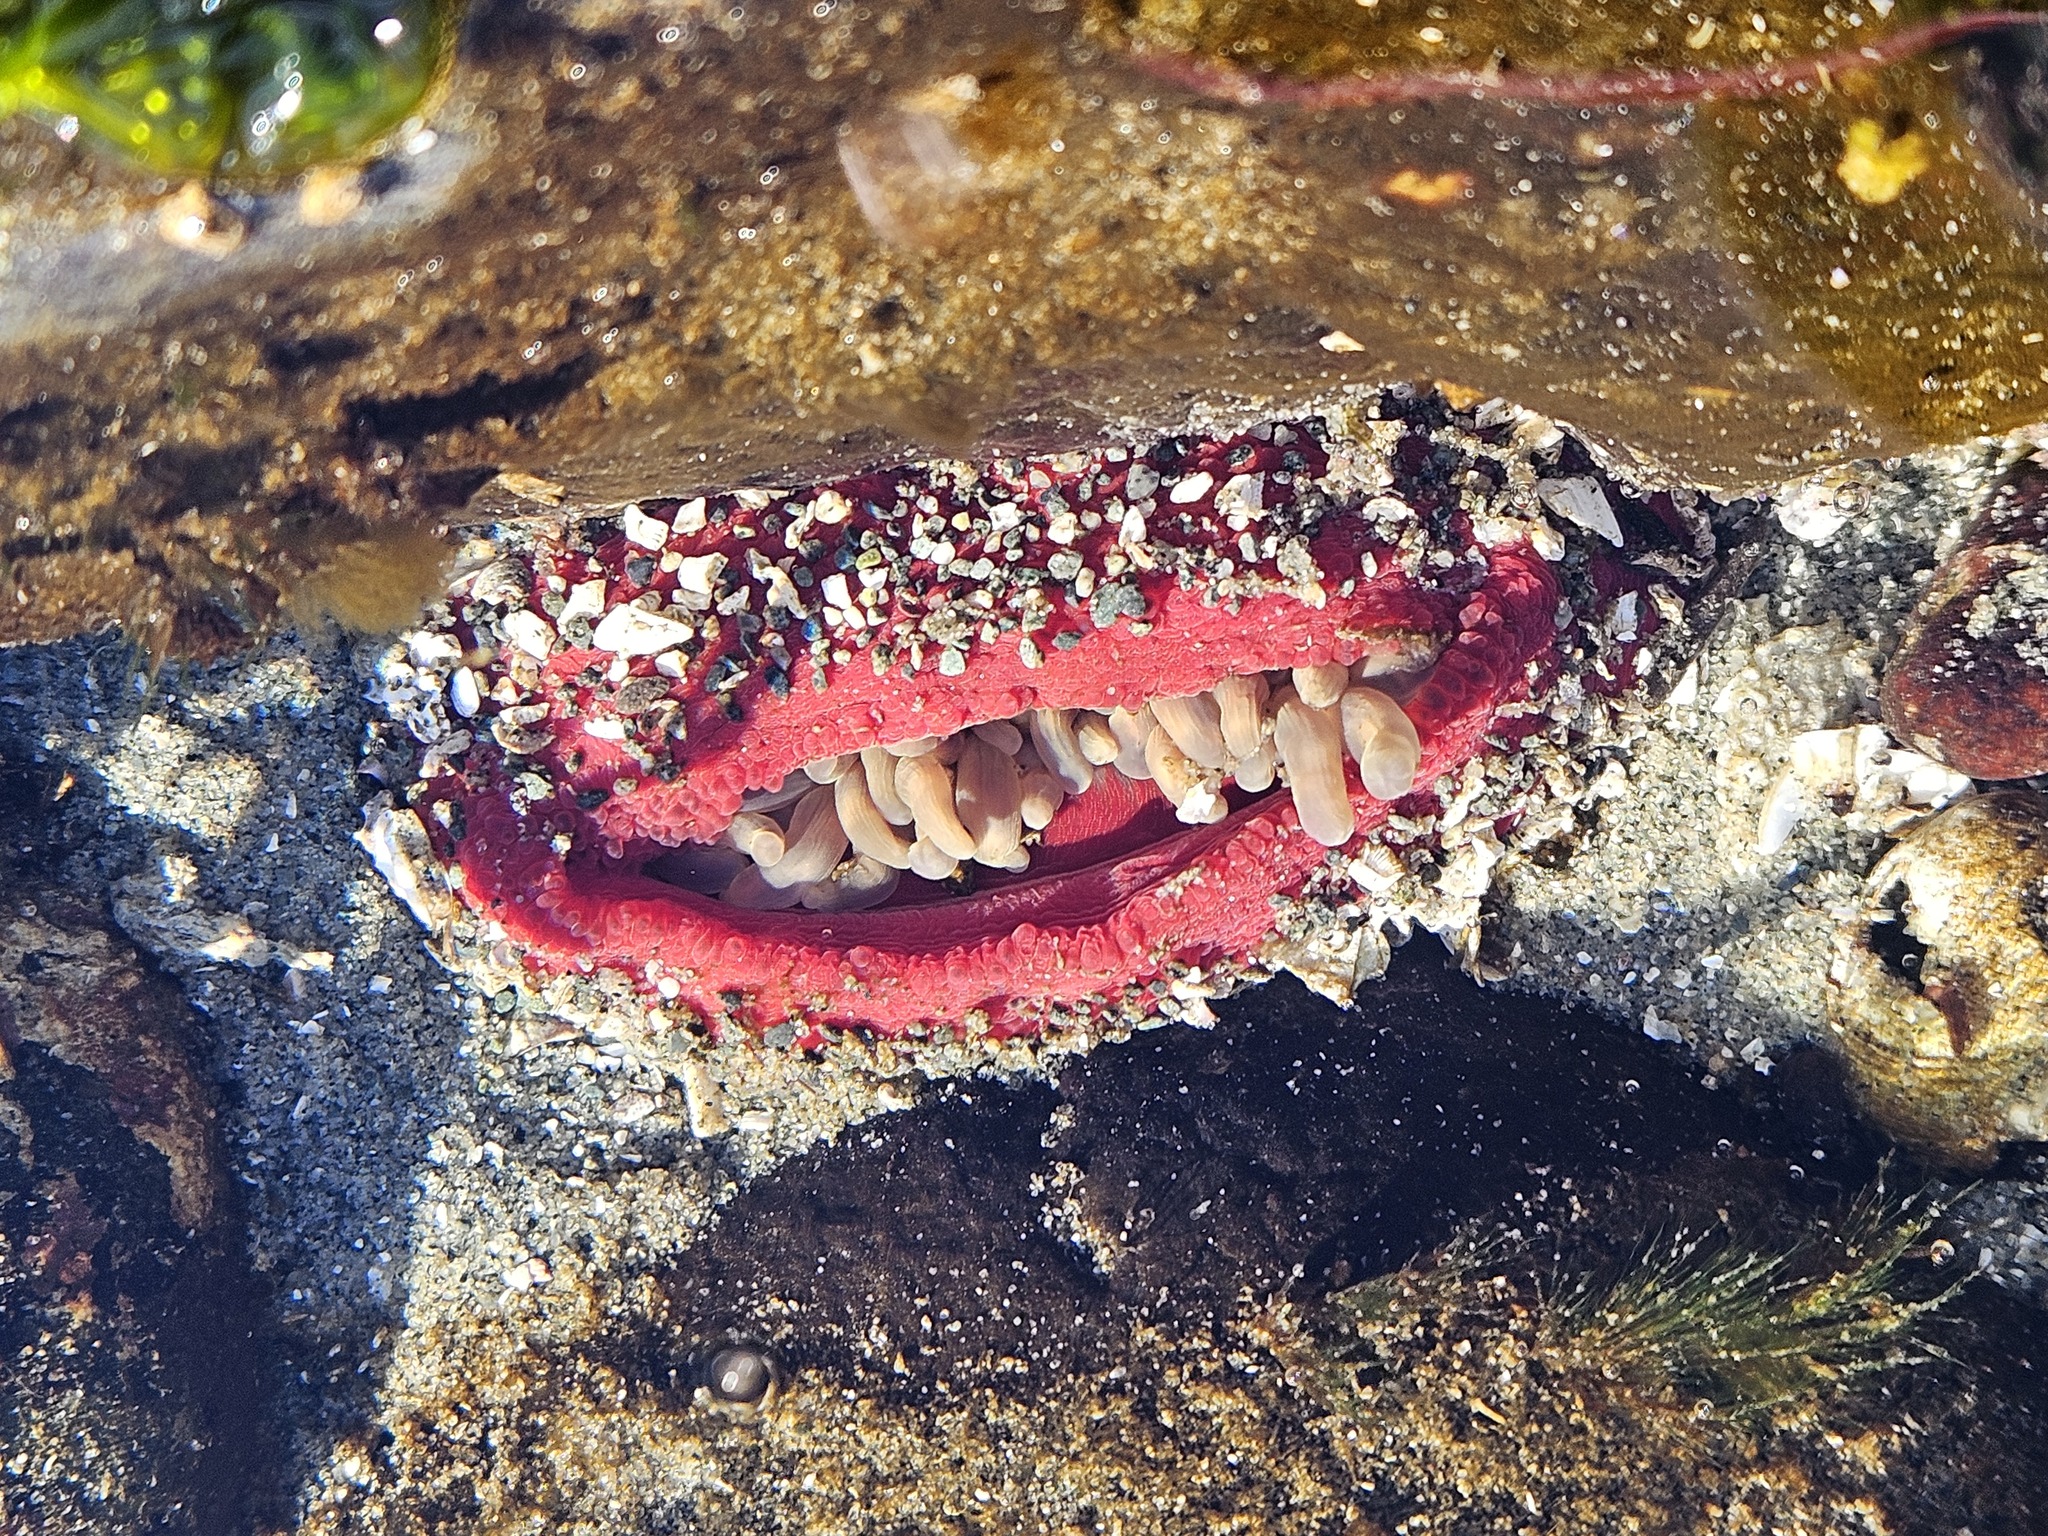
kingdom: Animalia
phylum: Cnidaria
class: Anthozoa
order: Actiniaria
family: Actiniidae
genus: Urticina
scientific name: Urticina clandestina
